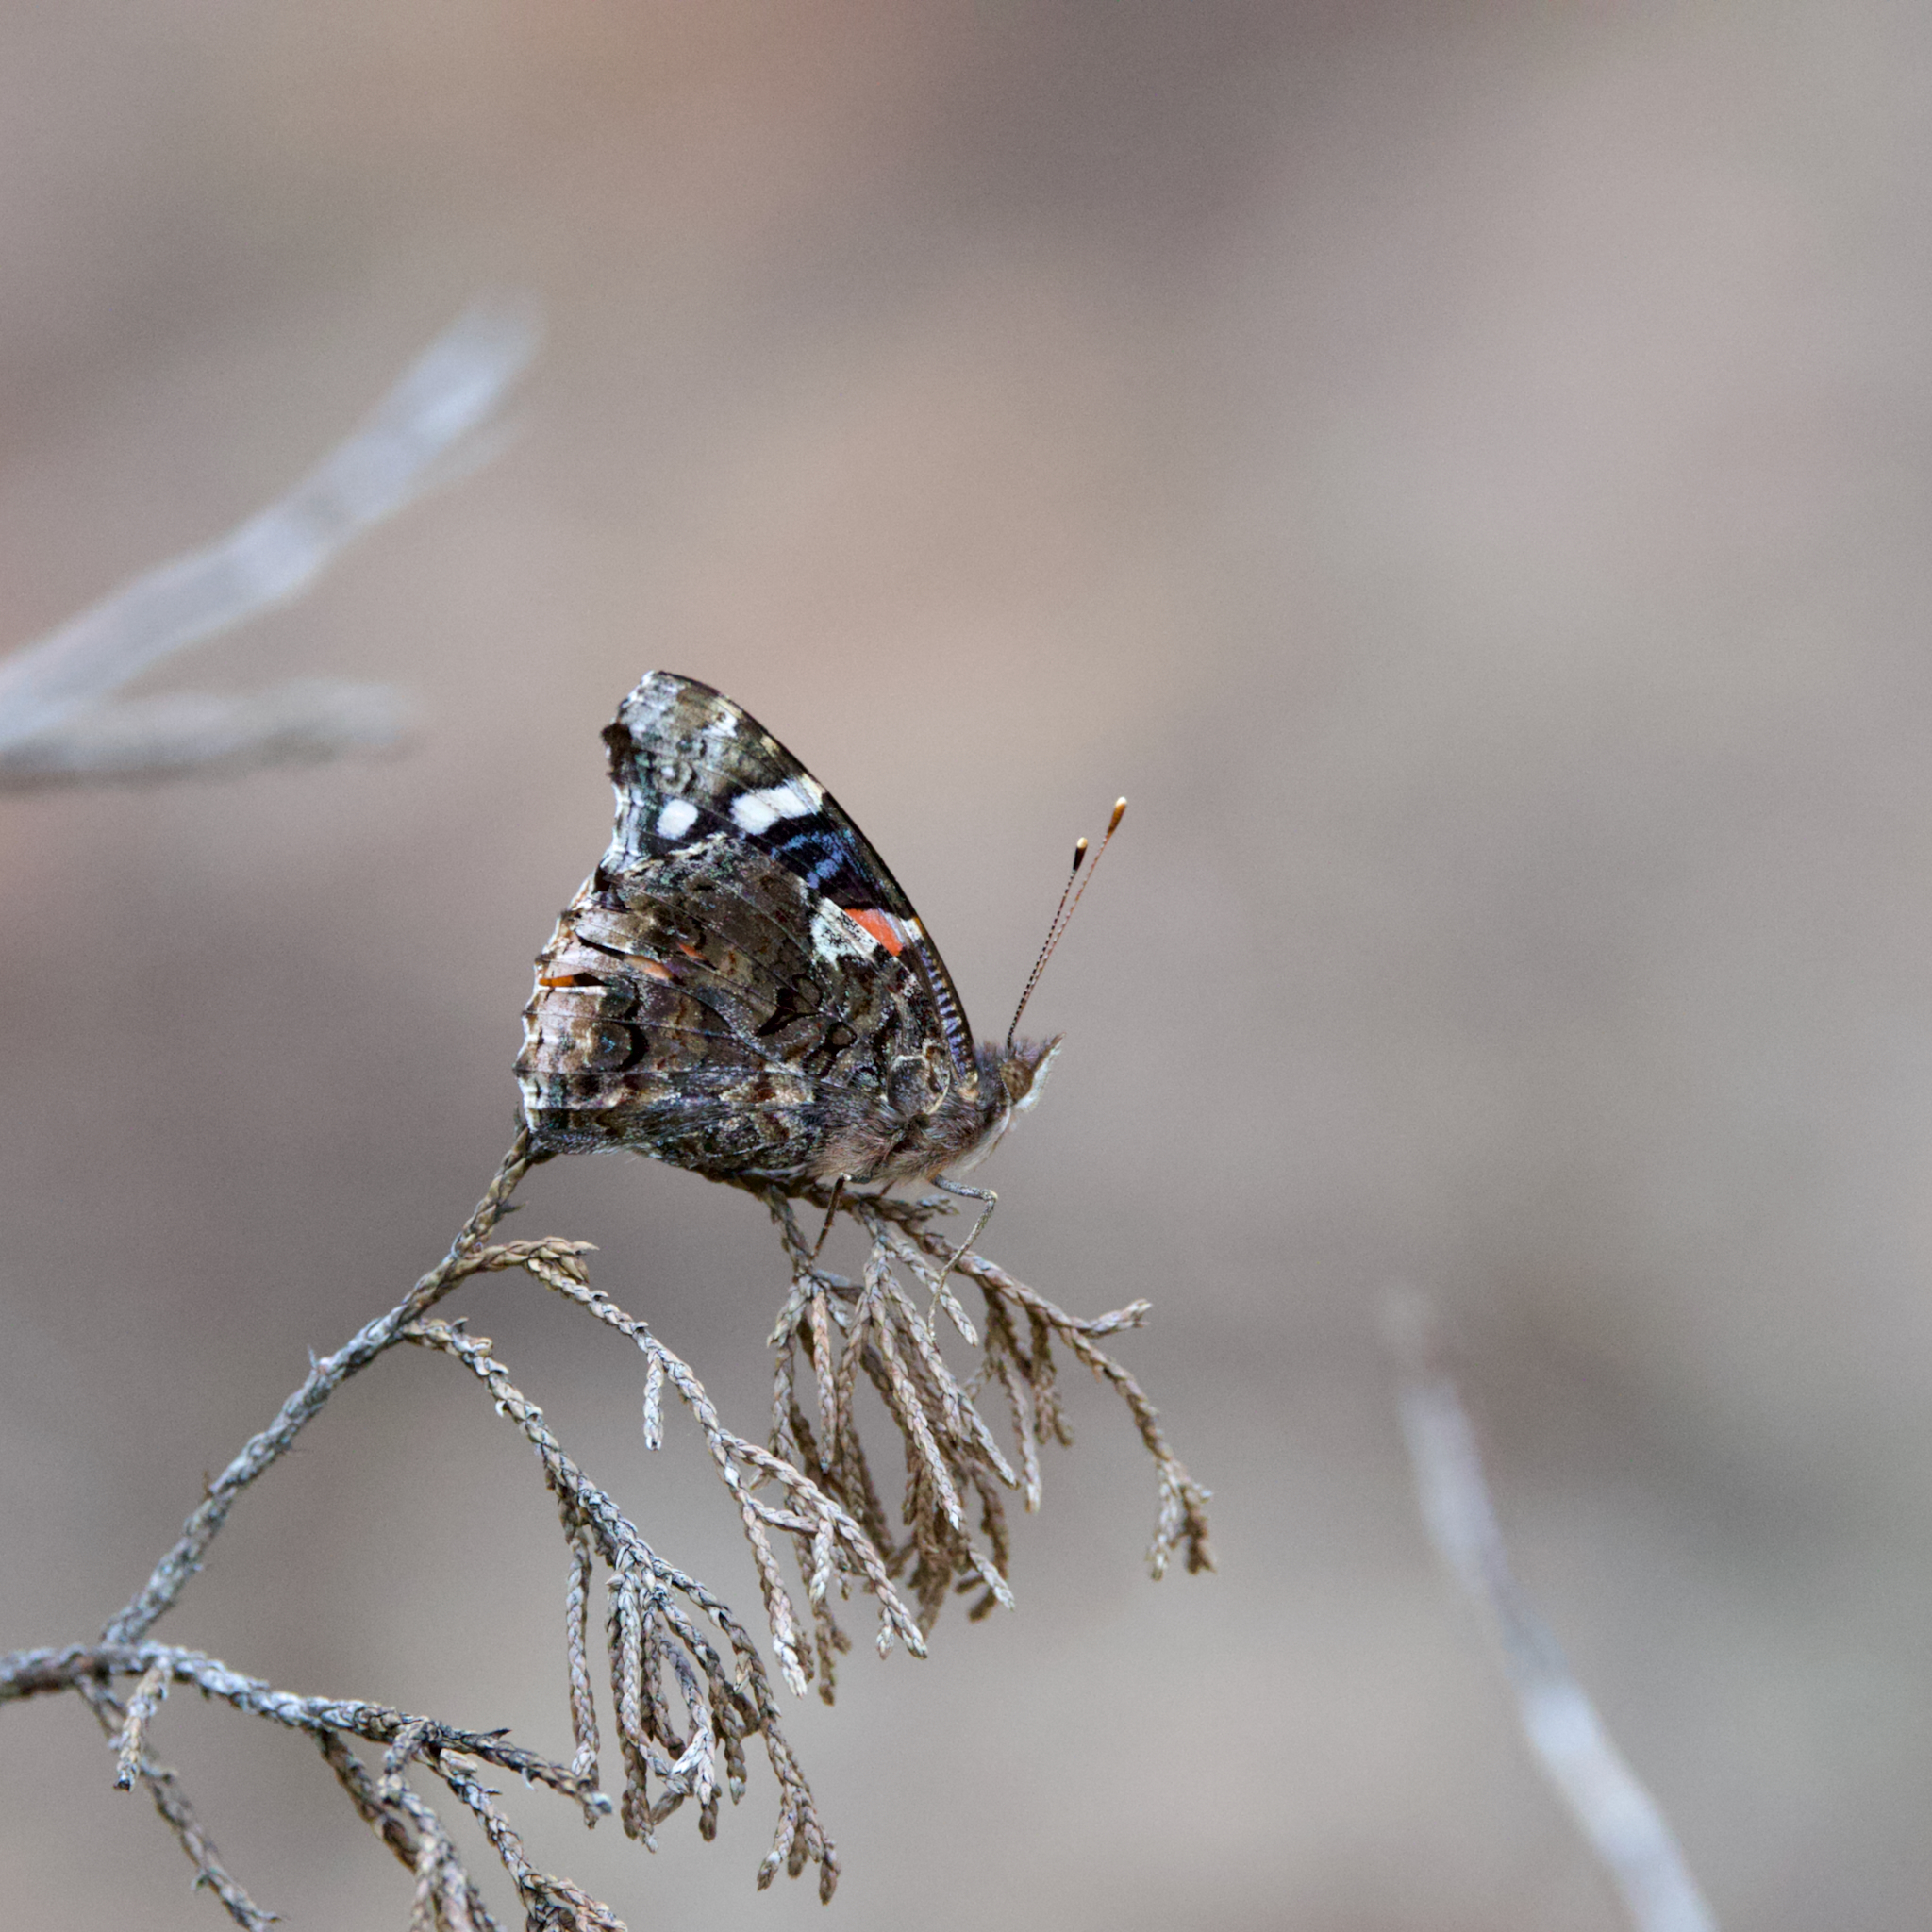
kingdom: Animalia
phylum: Arthropoda
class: Insecta
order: Lepidoptera
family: Nymphalidae
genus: Vanessa
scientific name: Vanessa atalanta
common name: Red admiral
